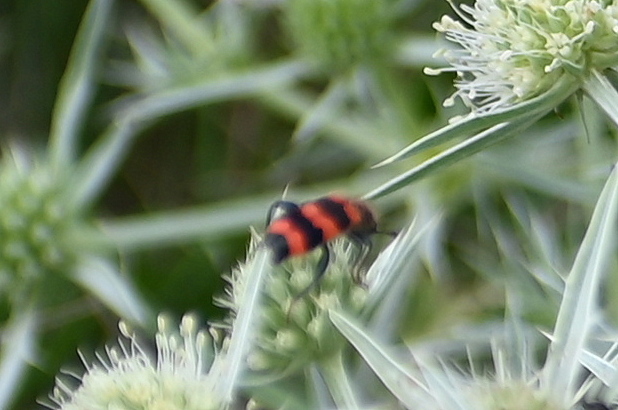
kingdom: Animalia
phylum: Arthropoda
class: Insecta
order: Coleoptera
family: Cleridae
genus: Trichodes
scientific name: Trichodes apiarius
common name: Bee-eating beetle
